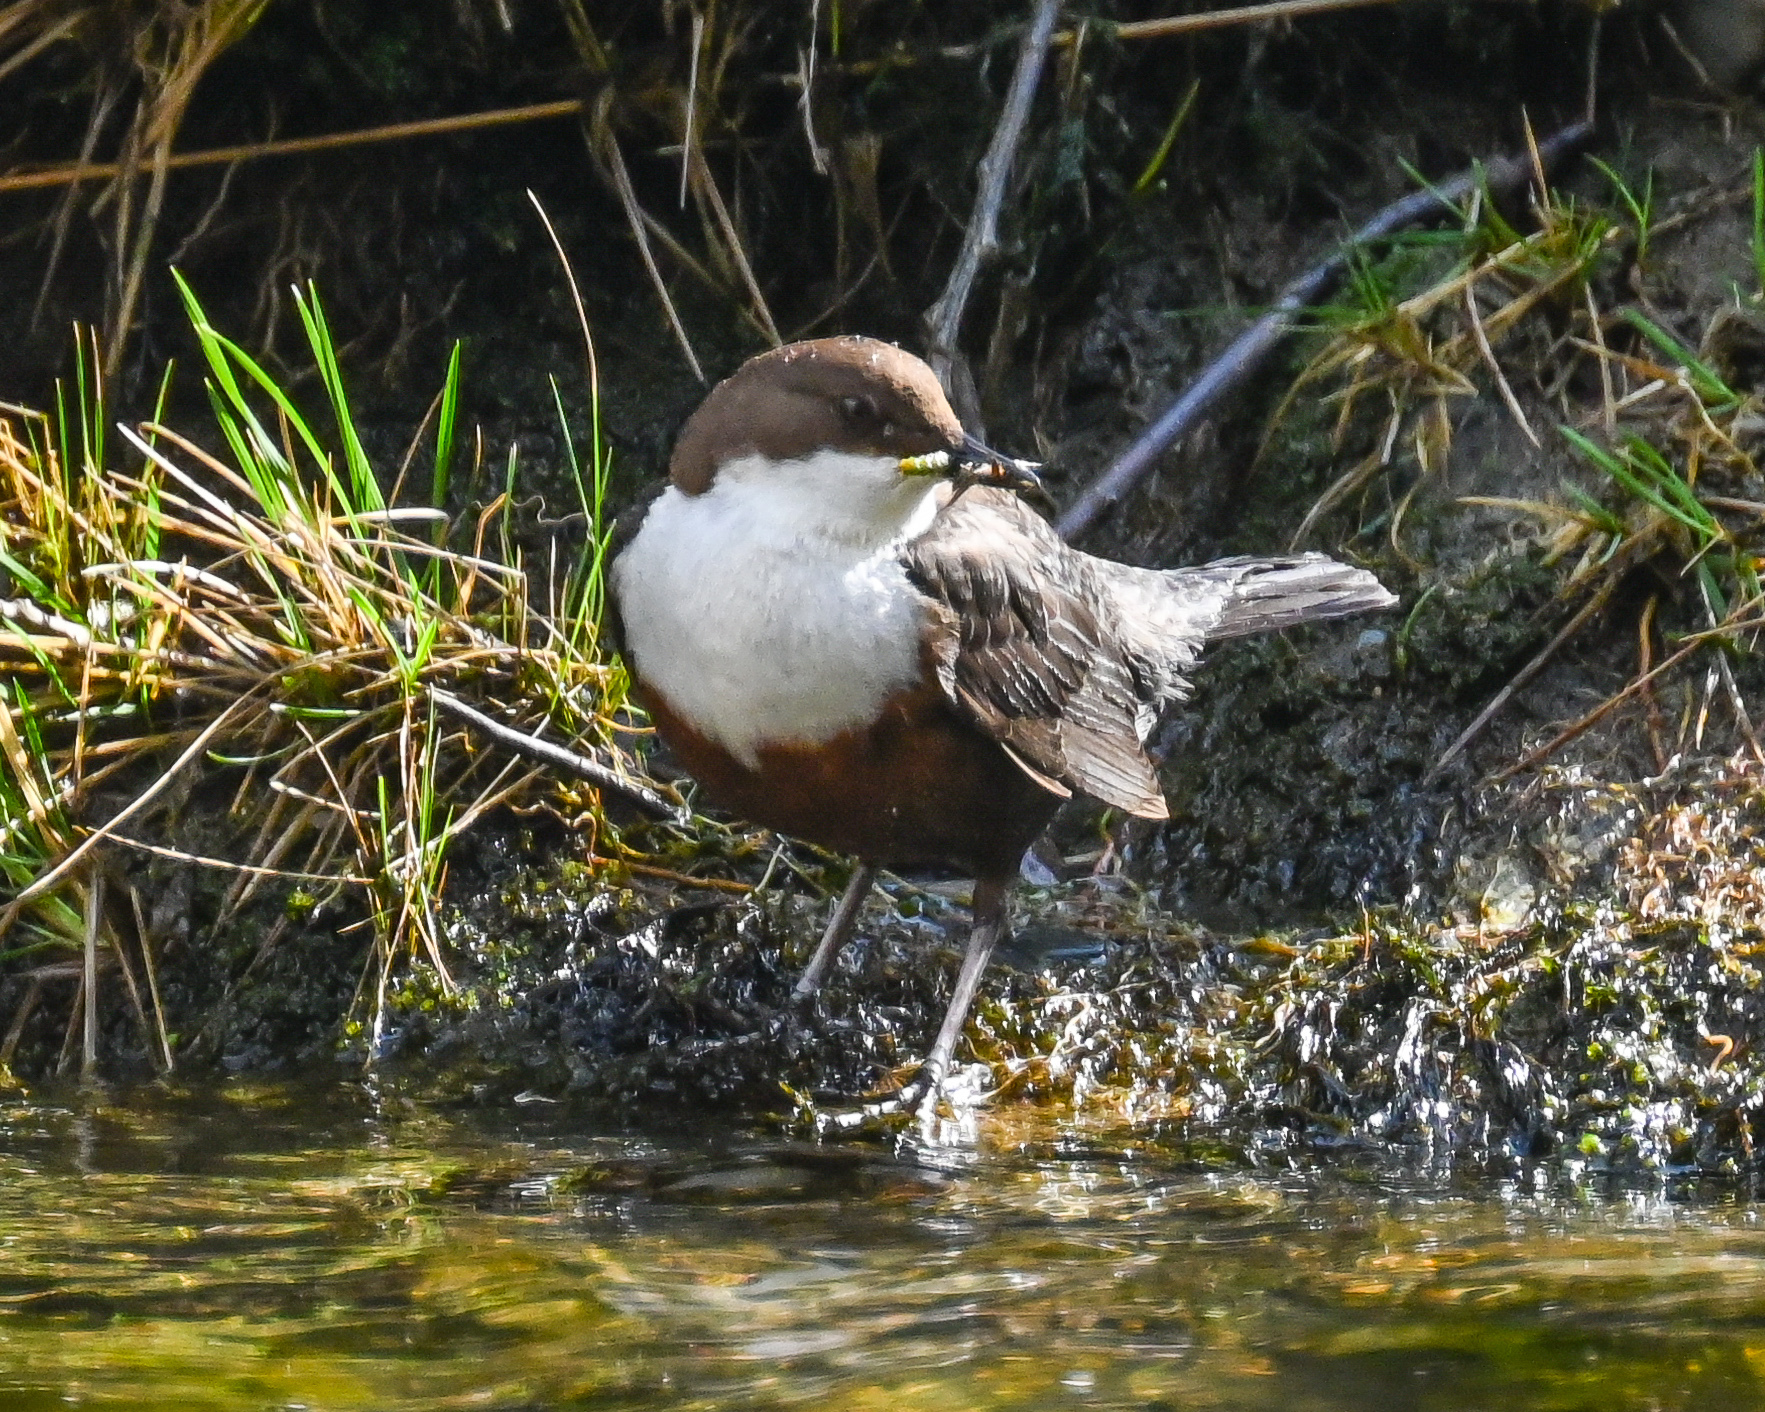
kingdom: Animalia
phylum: Chordata
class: Aves
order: Passeriformes
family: Cinclidae
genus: Cinclus
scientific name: Cinclus cinclus
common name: White-throated dipper
